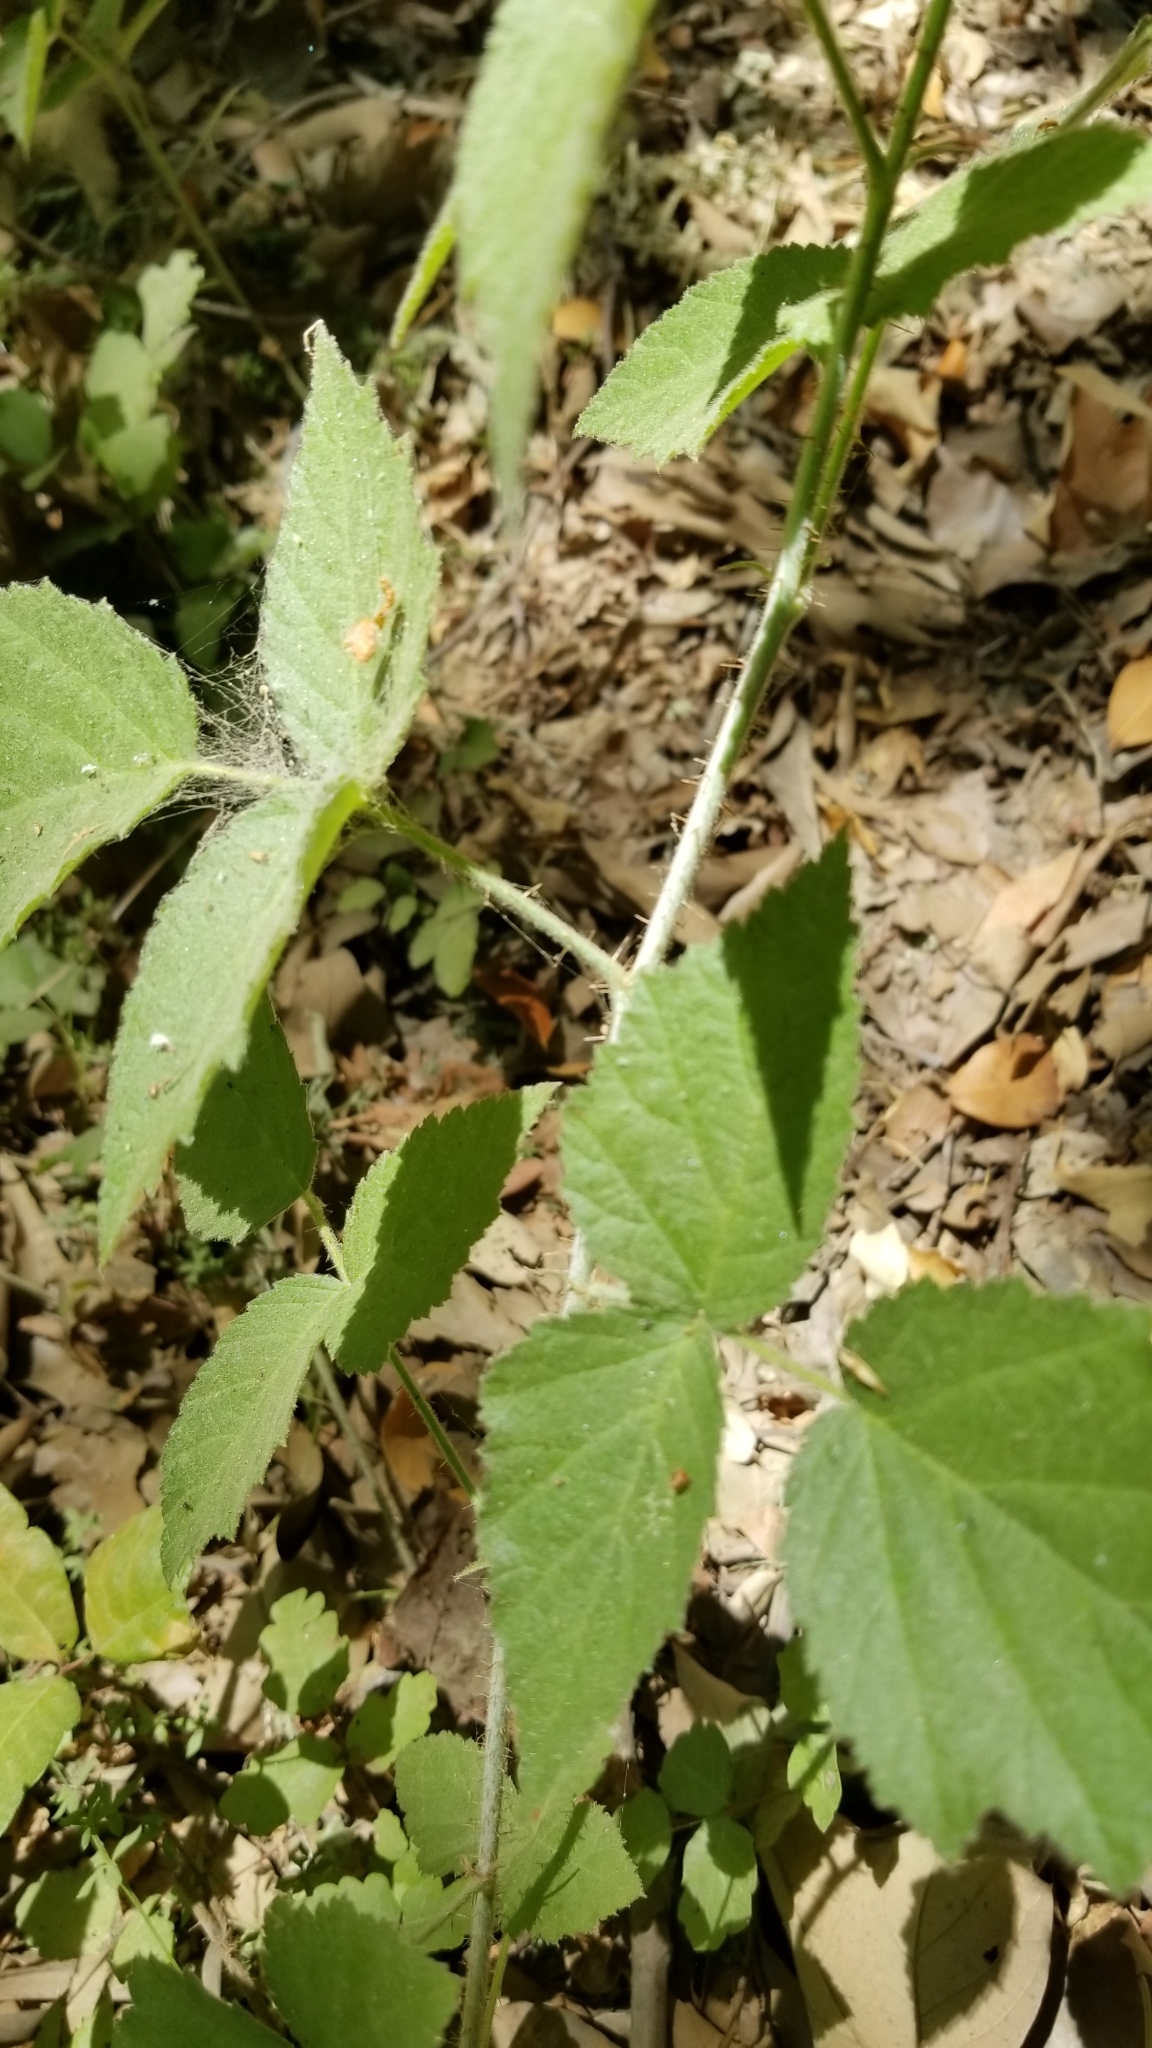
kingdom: Plantae
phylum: Tracheophyta
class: Magnoliopsida
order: Rosales
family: Rosaceae
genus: Rubus
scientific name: Rubus ursinus
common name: Pacific blackberry
